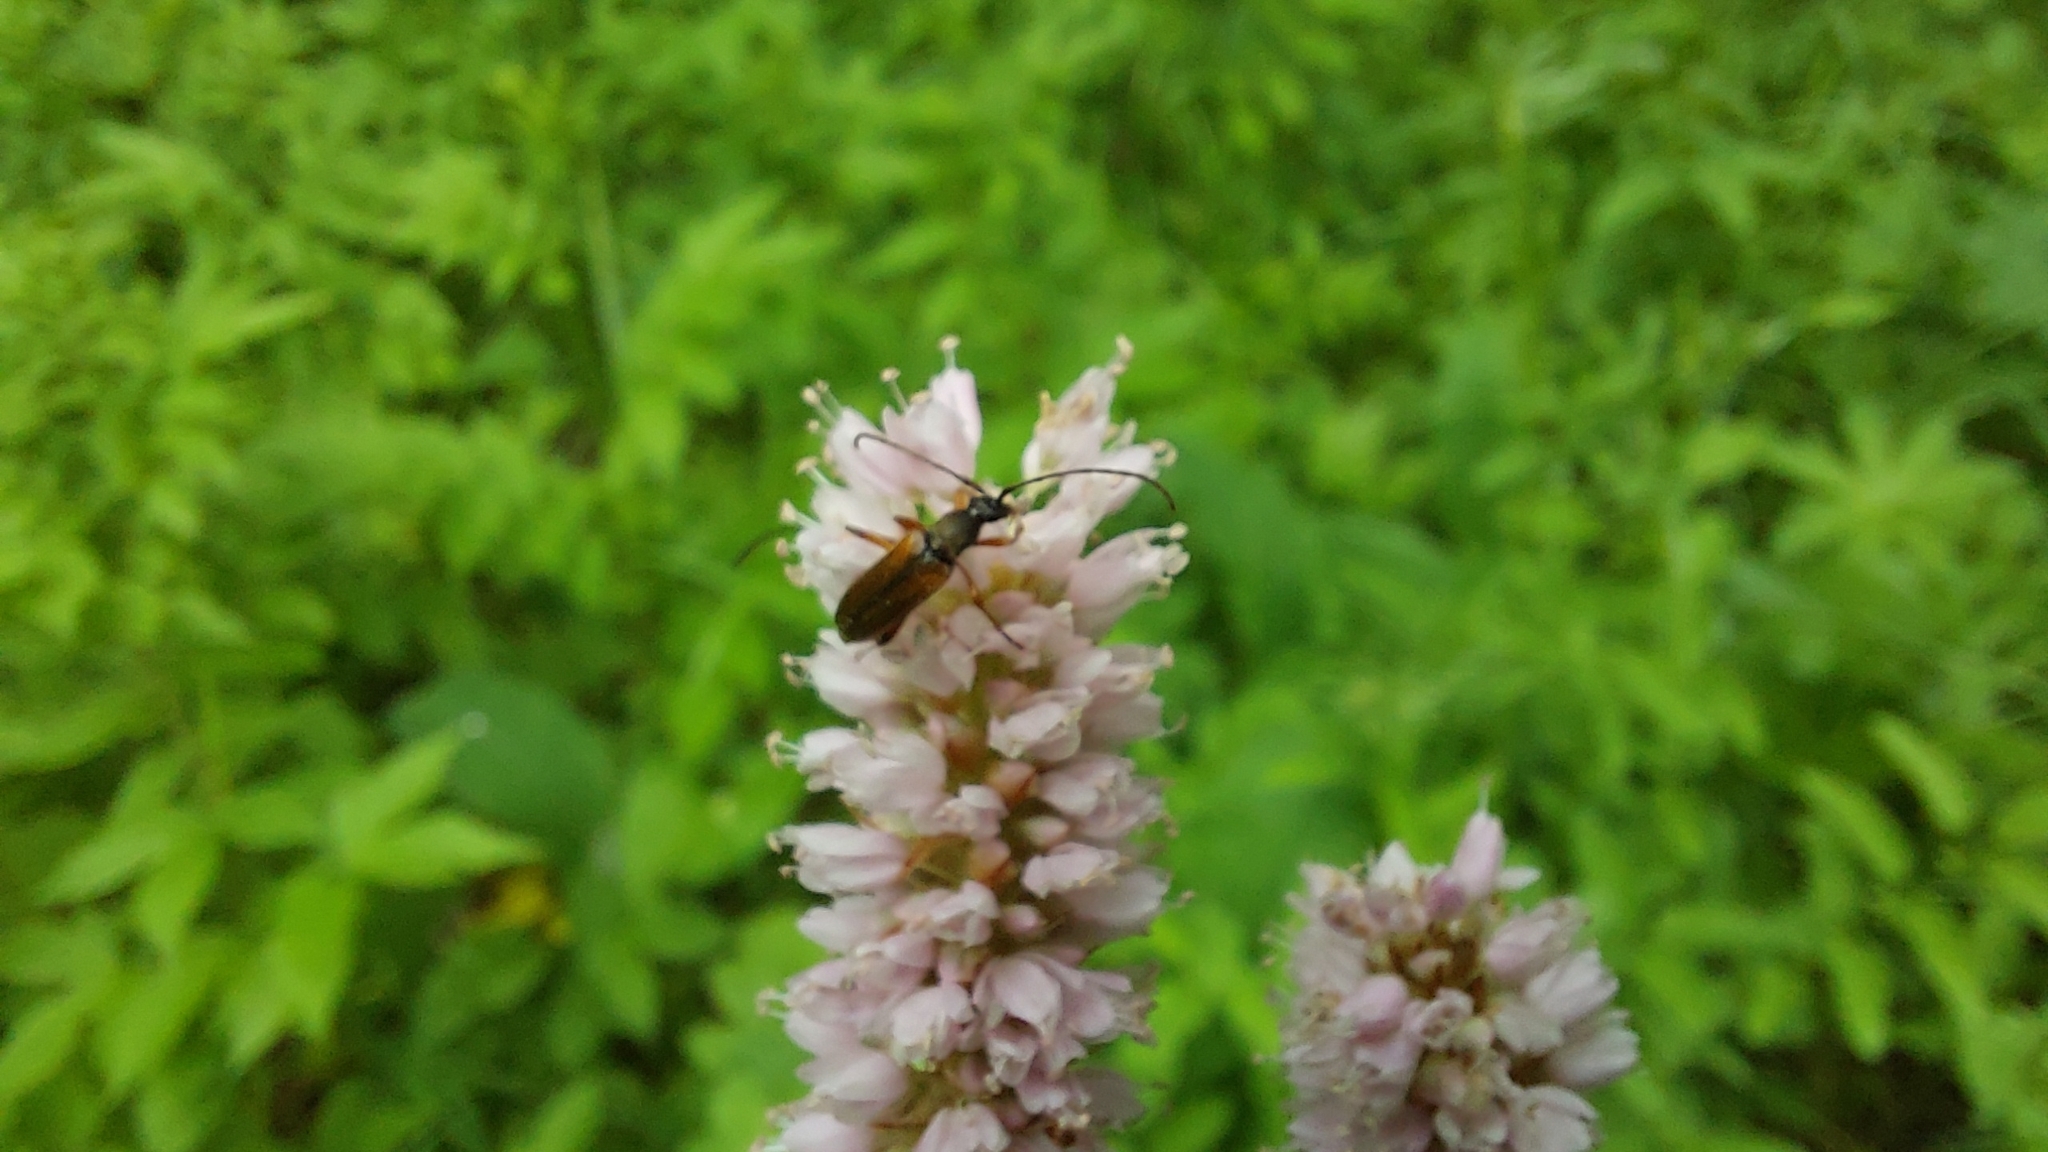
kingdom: Animalia
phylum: Arthropoda
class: Insecta
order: Coleoptera
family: Cerambycidae
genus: Alosterna
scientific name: Alosterna tabacicolor
